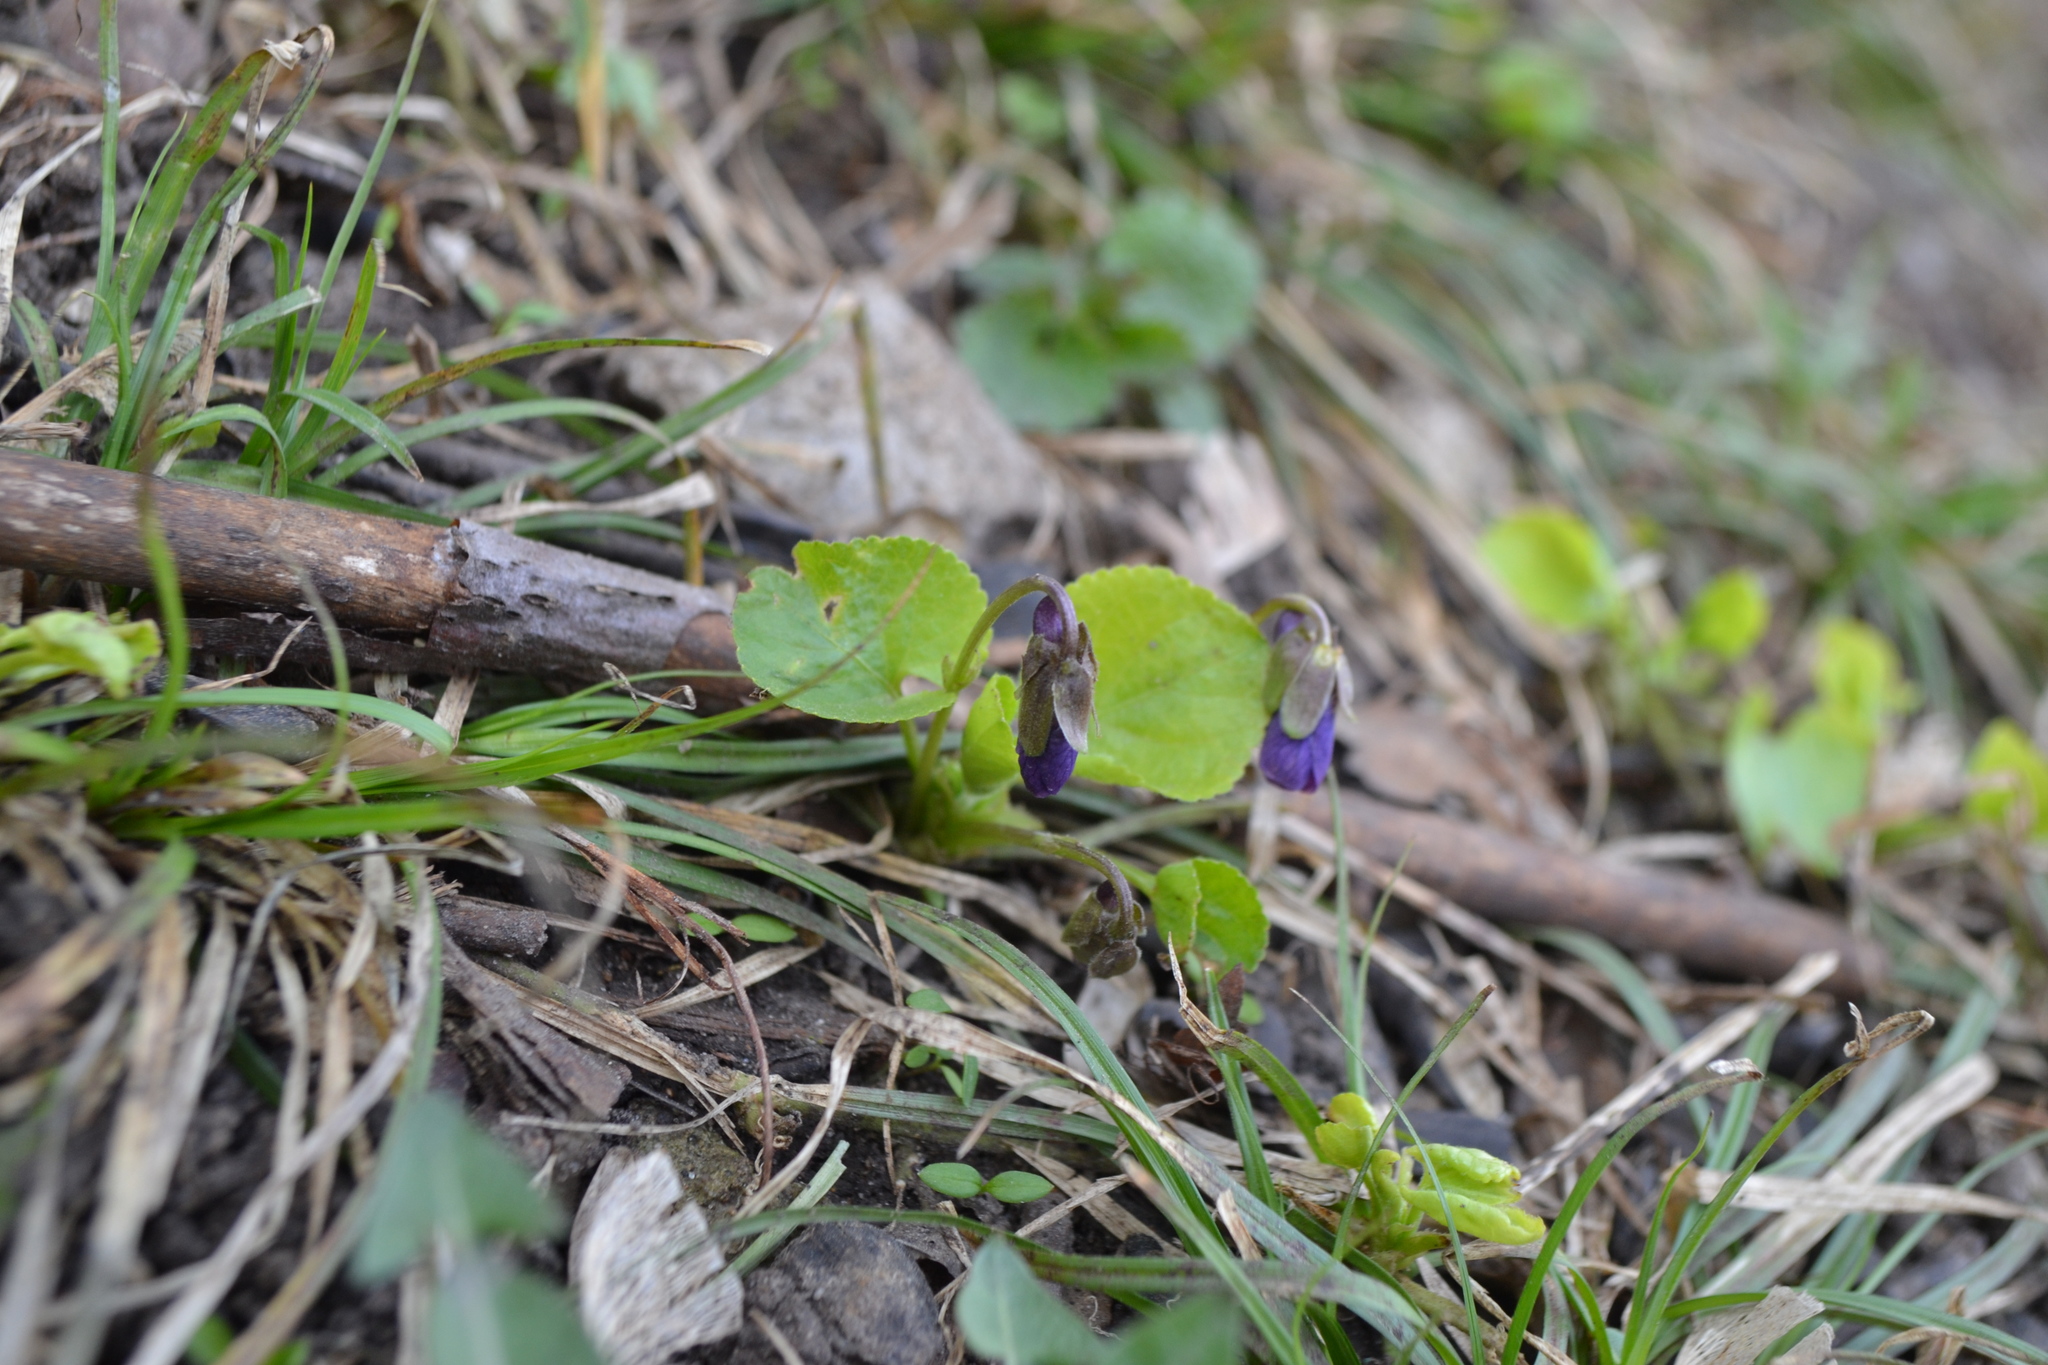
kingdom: Plantae
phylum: Tracheophyta
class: Magnoliopsida
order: Malpighiales
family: Violaceae
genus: Viola
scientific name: Viola odorata
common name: Sweet violet
